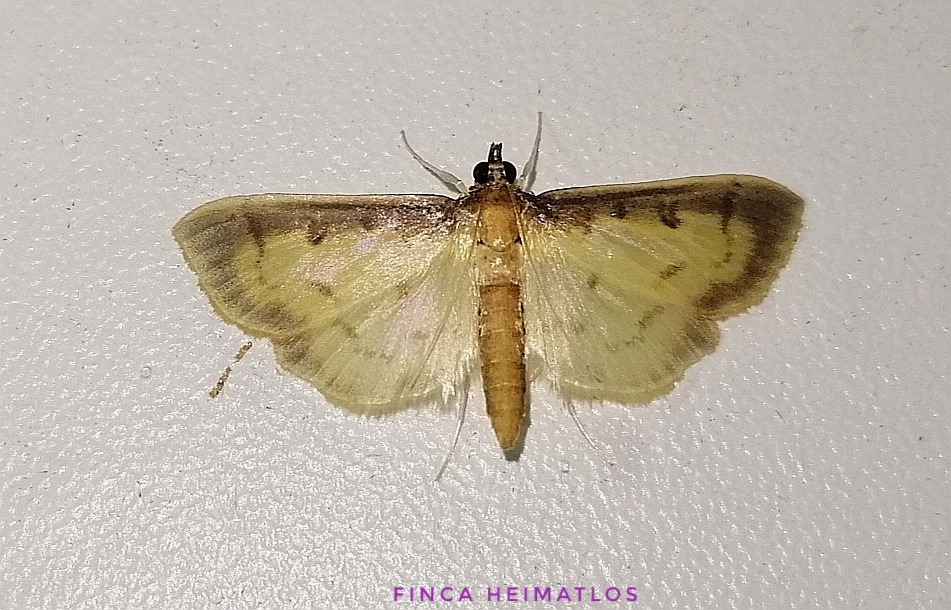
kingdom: Animalia
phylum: Arthropoda
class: Insecta
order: Lepidoptera
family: Crambidae
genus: Eulepte
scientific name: Eulepte alialis
